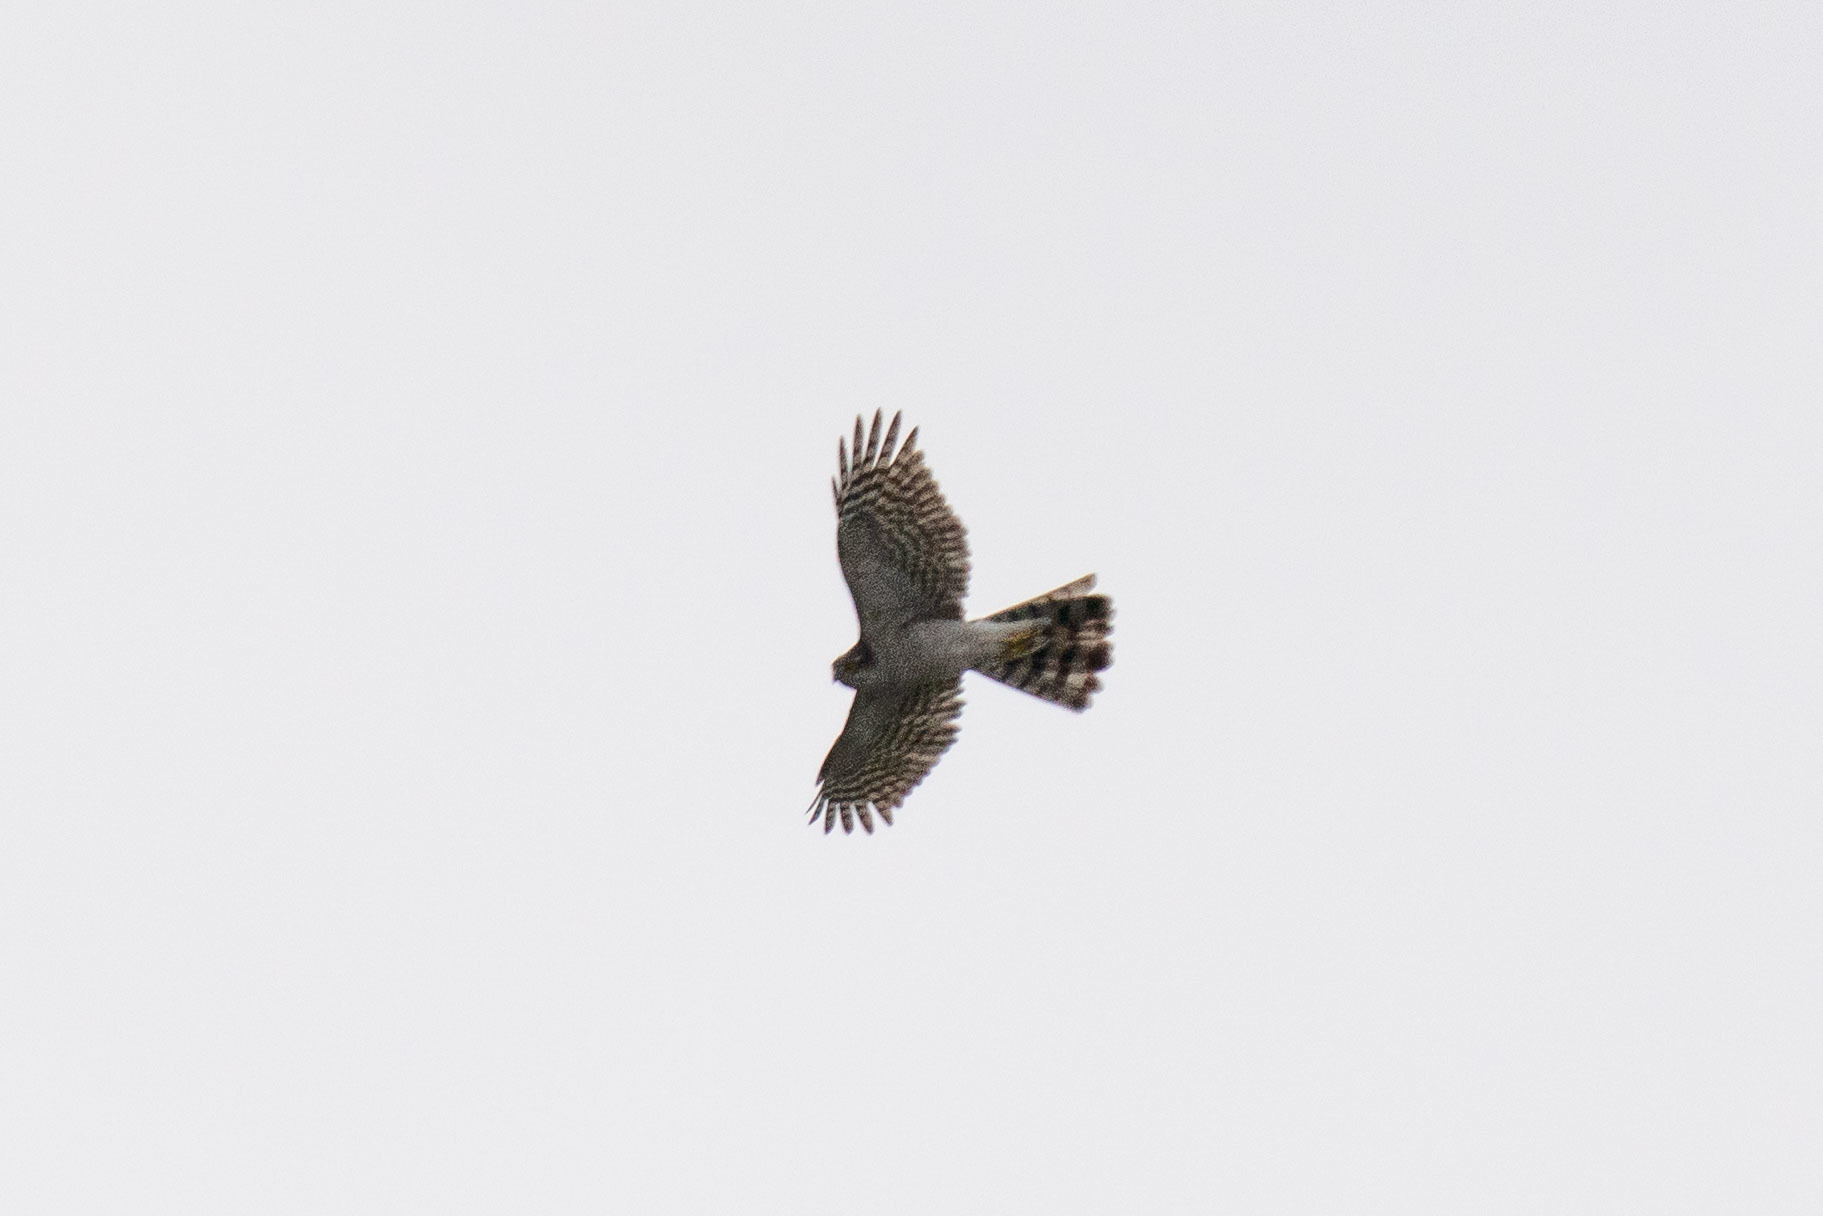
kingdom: Animalia
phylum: Chordata
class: Aves
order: Accipitriformes
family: Accipitridae
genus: Accipiter
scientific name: Accipiter nisus
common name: Eurasian sparrowhawk
